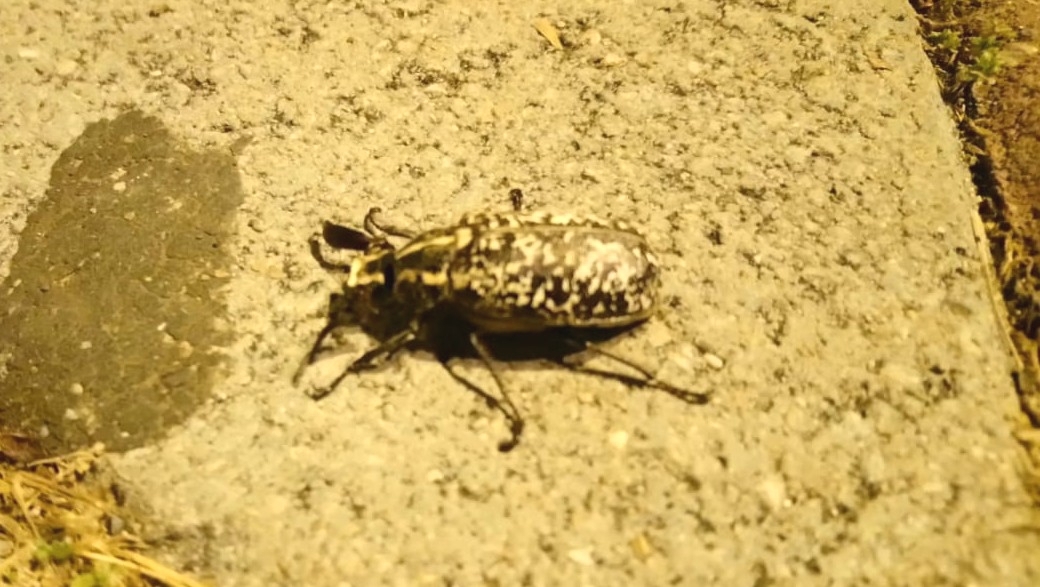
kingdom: Animalia
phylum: Arthropoda
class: Insecta
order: Coleoptera
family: Scarabaeidae
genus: Polyphylla
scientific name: Polyphylla fullo
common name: Pine chafer
